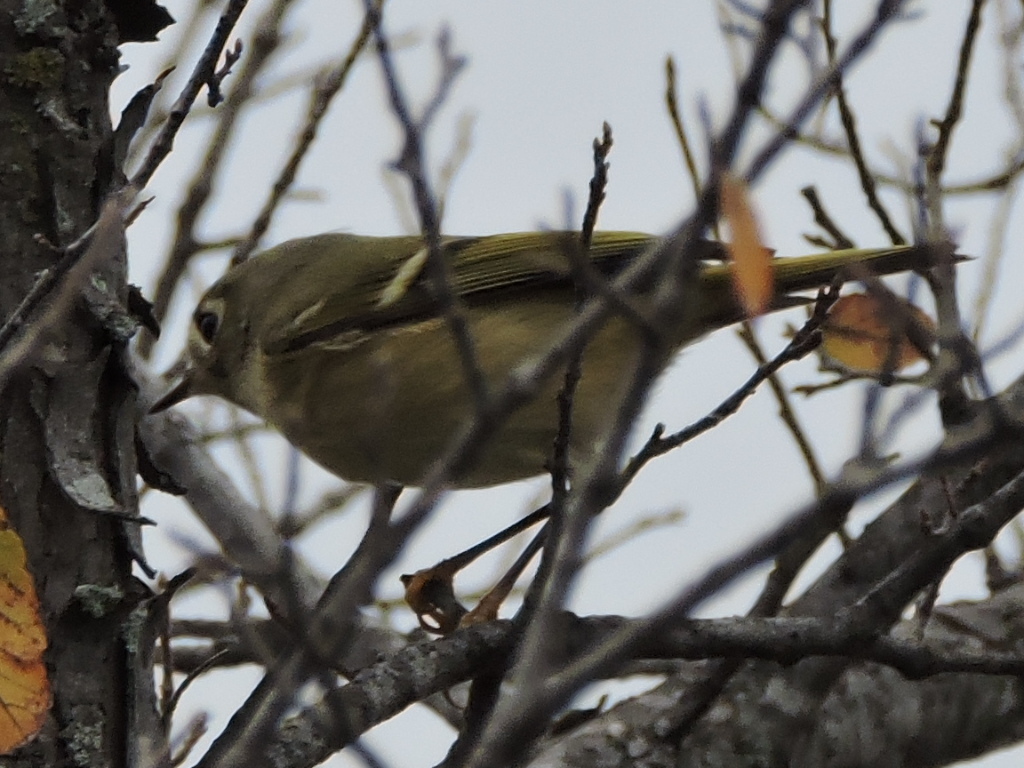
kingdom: Animalia
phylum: Chordata
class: Aves
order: Passeriformes
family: Regulidae
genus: Regulus
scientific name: Regulus calendula
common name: Ruby-crowned kinglet
